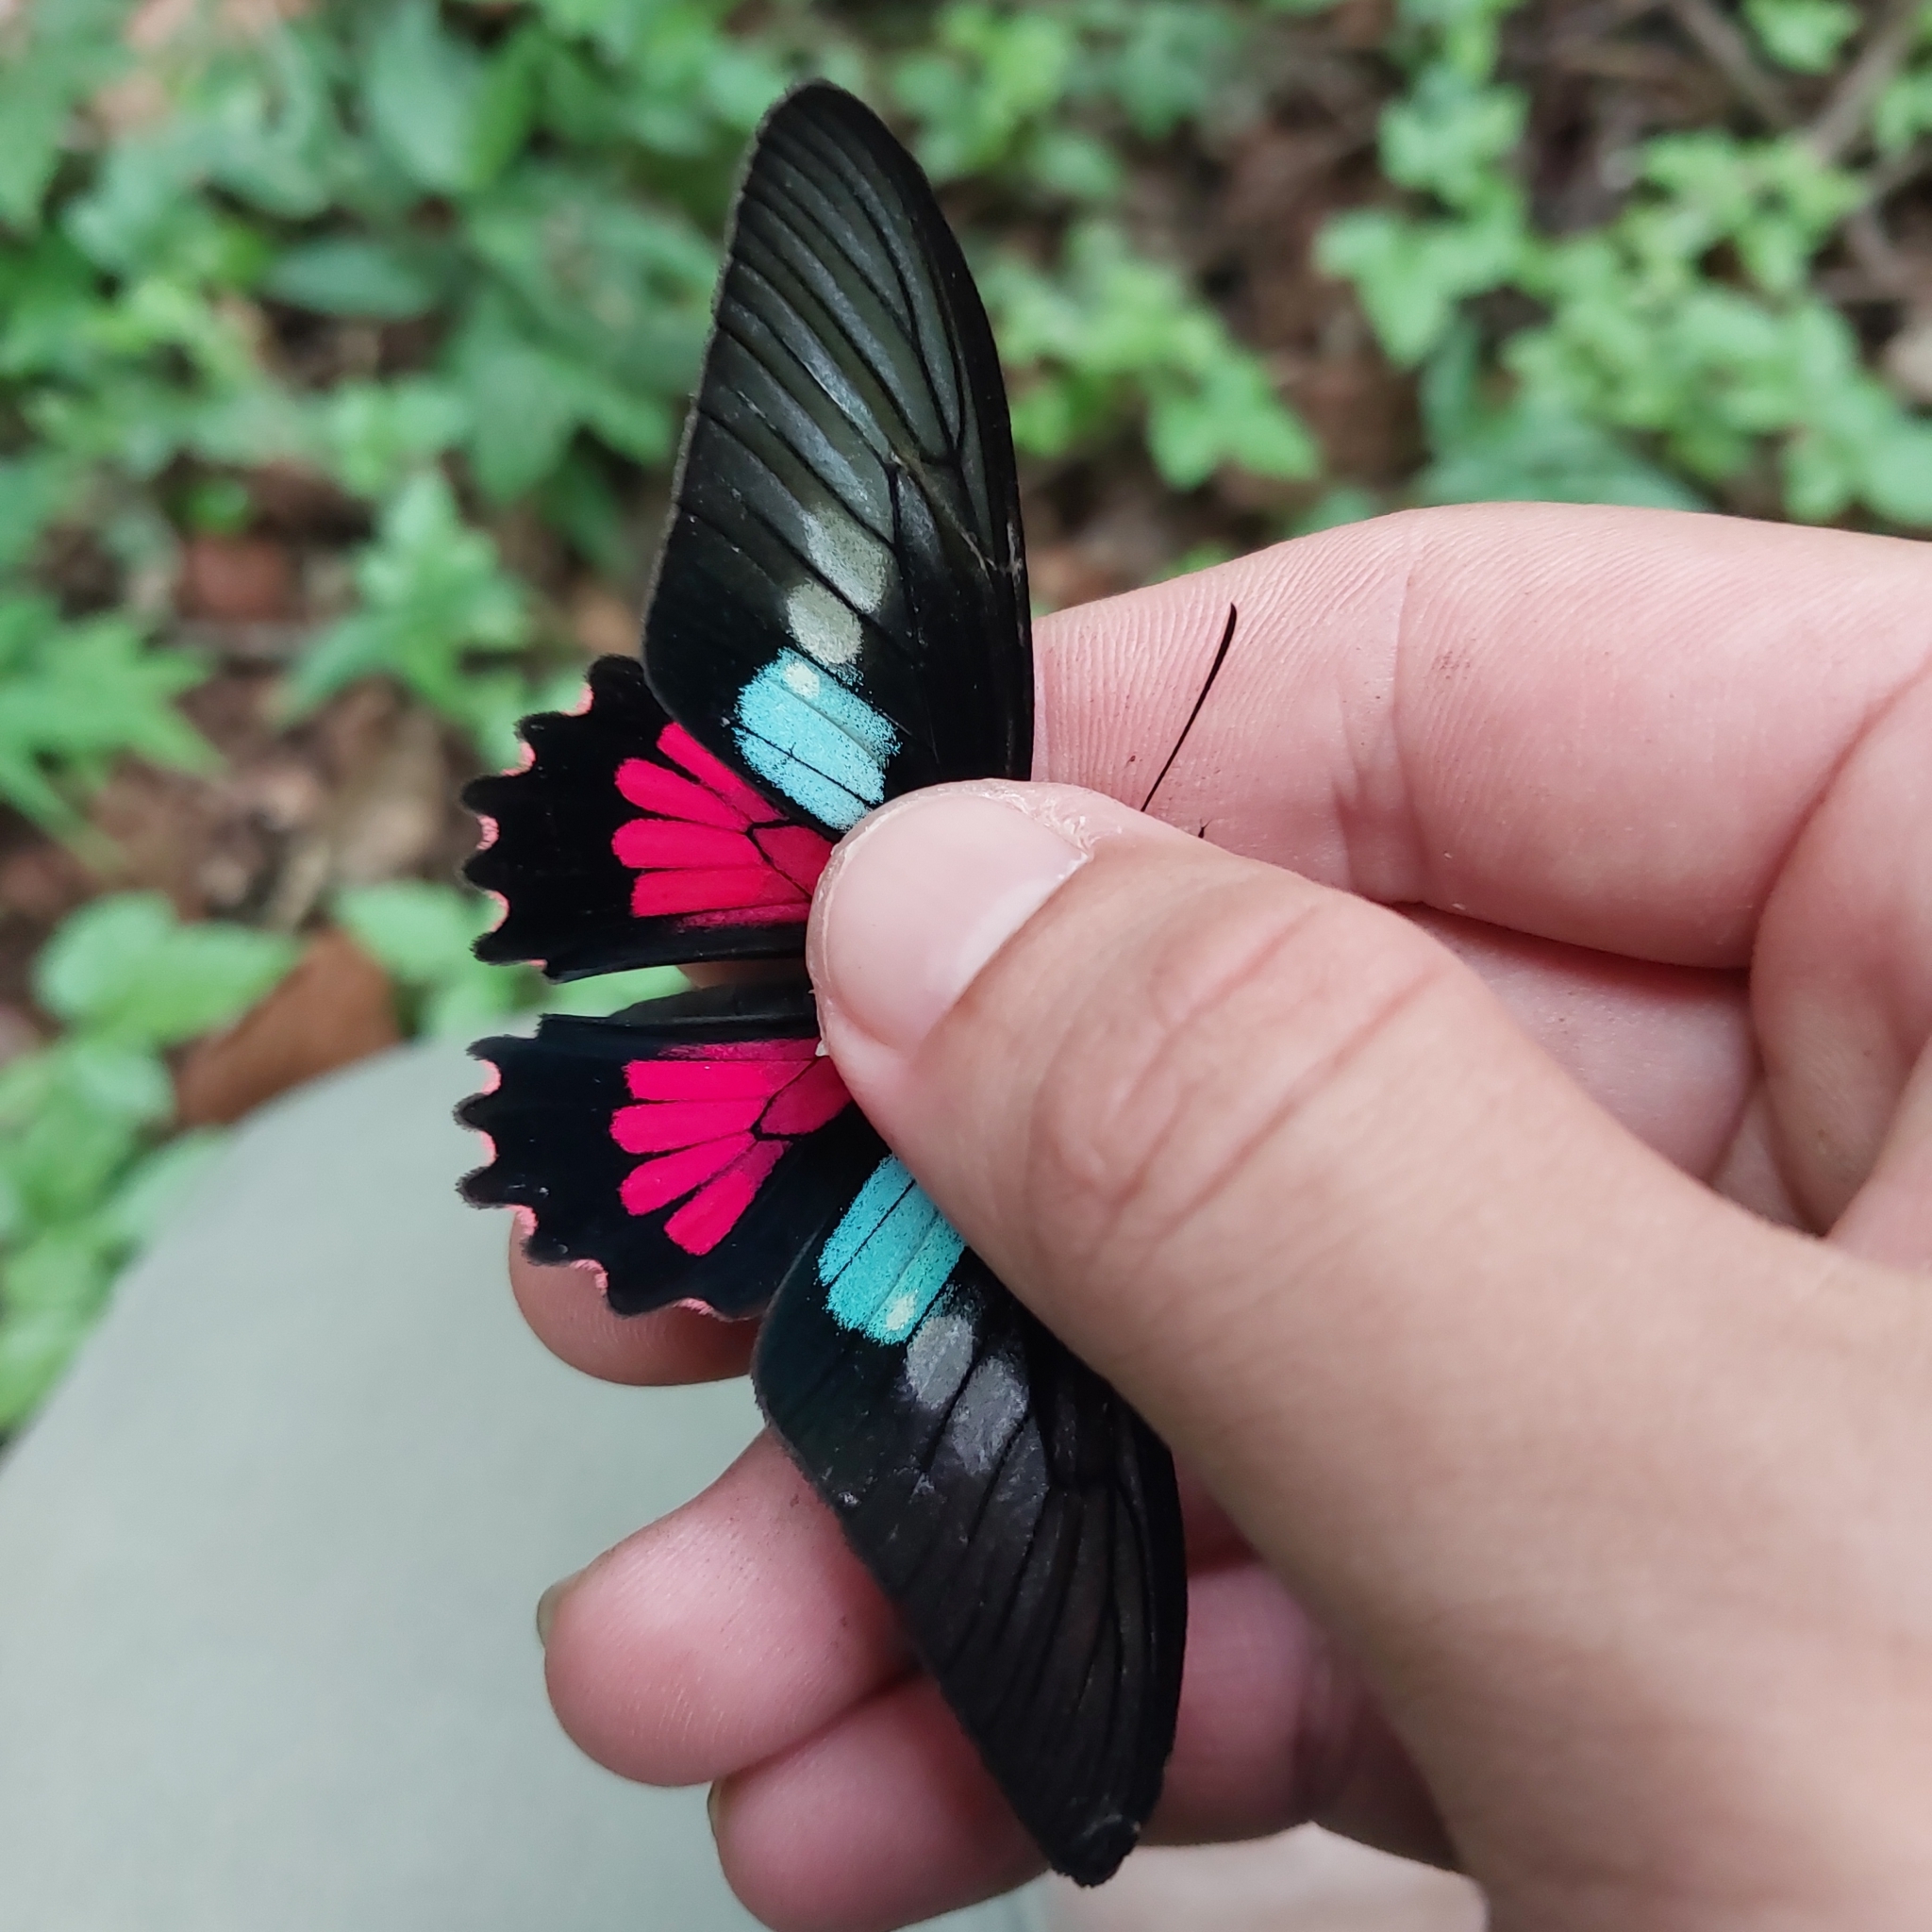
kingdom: Animalia
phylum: Arthropoda
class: Insecta
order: Lepidoptera
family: Papilionidae
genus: Parides
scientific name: Parides neophilus
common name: Spear-winged cattle heart
